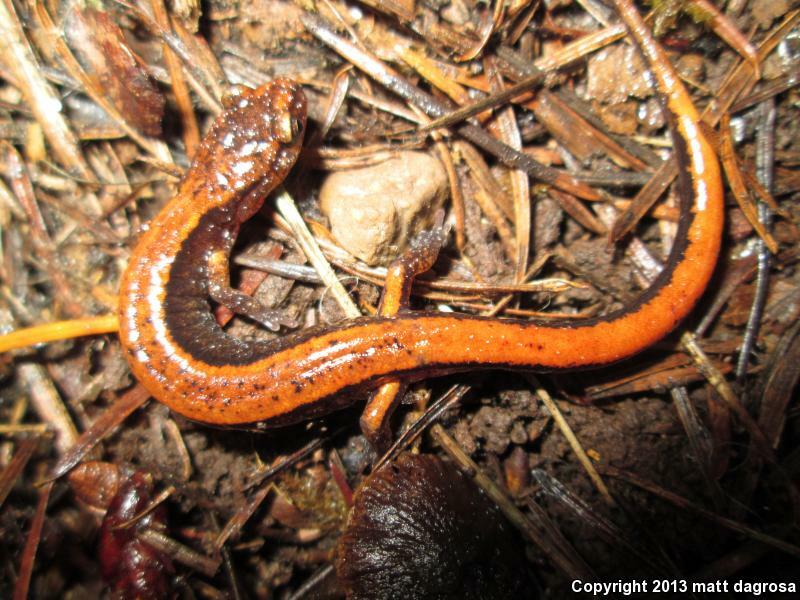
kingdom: Animalia
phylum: Chordata
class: Amphibia
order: Caudata
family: Plethodontidae
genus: Plethodon
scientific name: Plethodon vehiculum
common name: Western red-backed salamander
